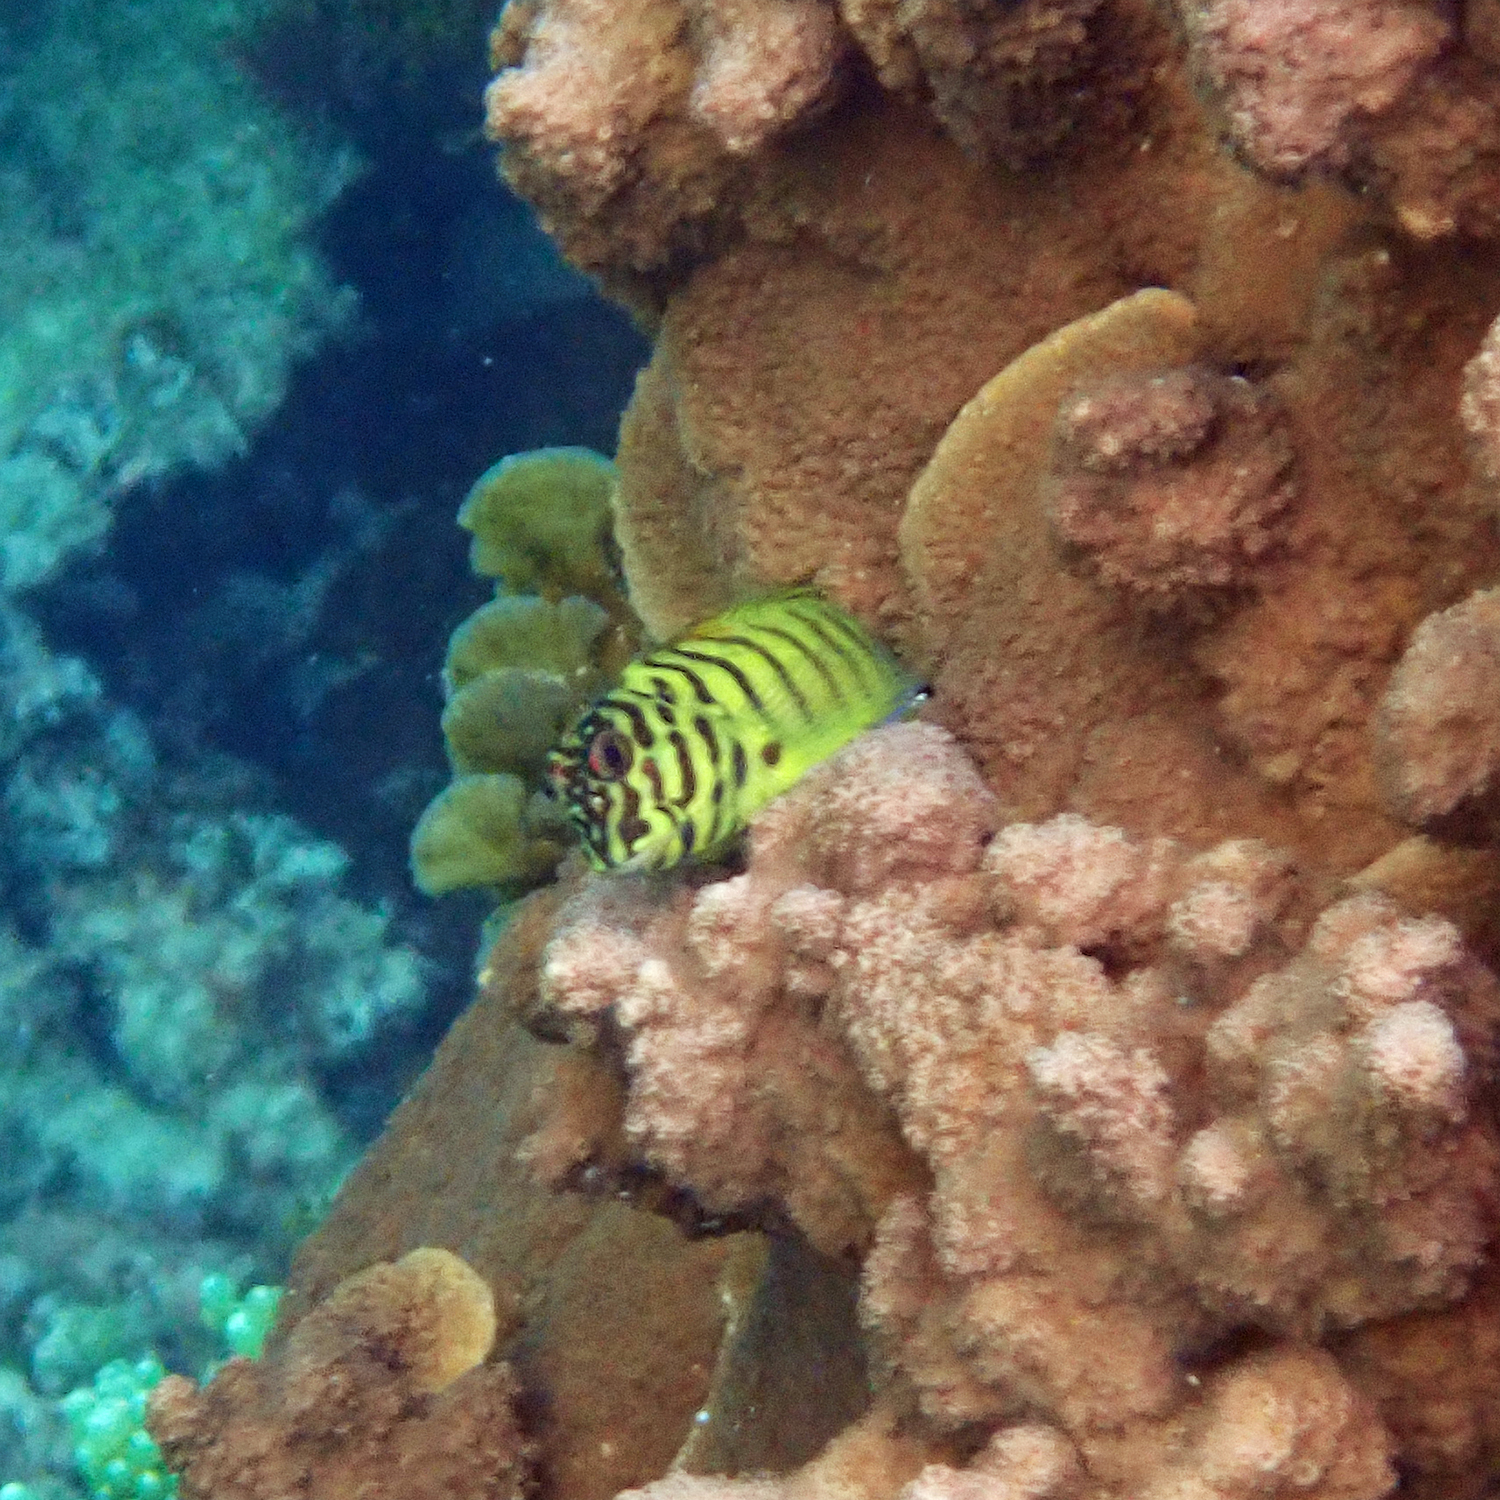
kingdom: Animalia
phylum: Chordata
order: Perciformes
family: Blenniidae
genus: Cirripectes
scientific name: Cirripectes castaneus
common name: Chestnut blenny
